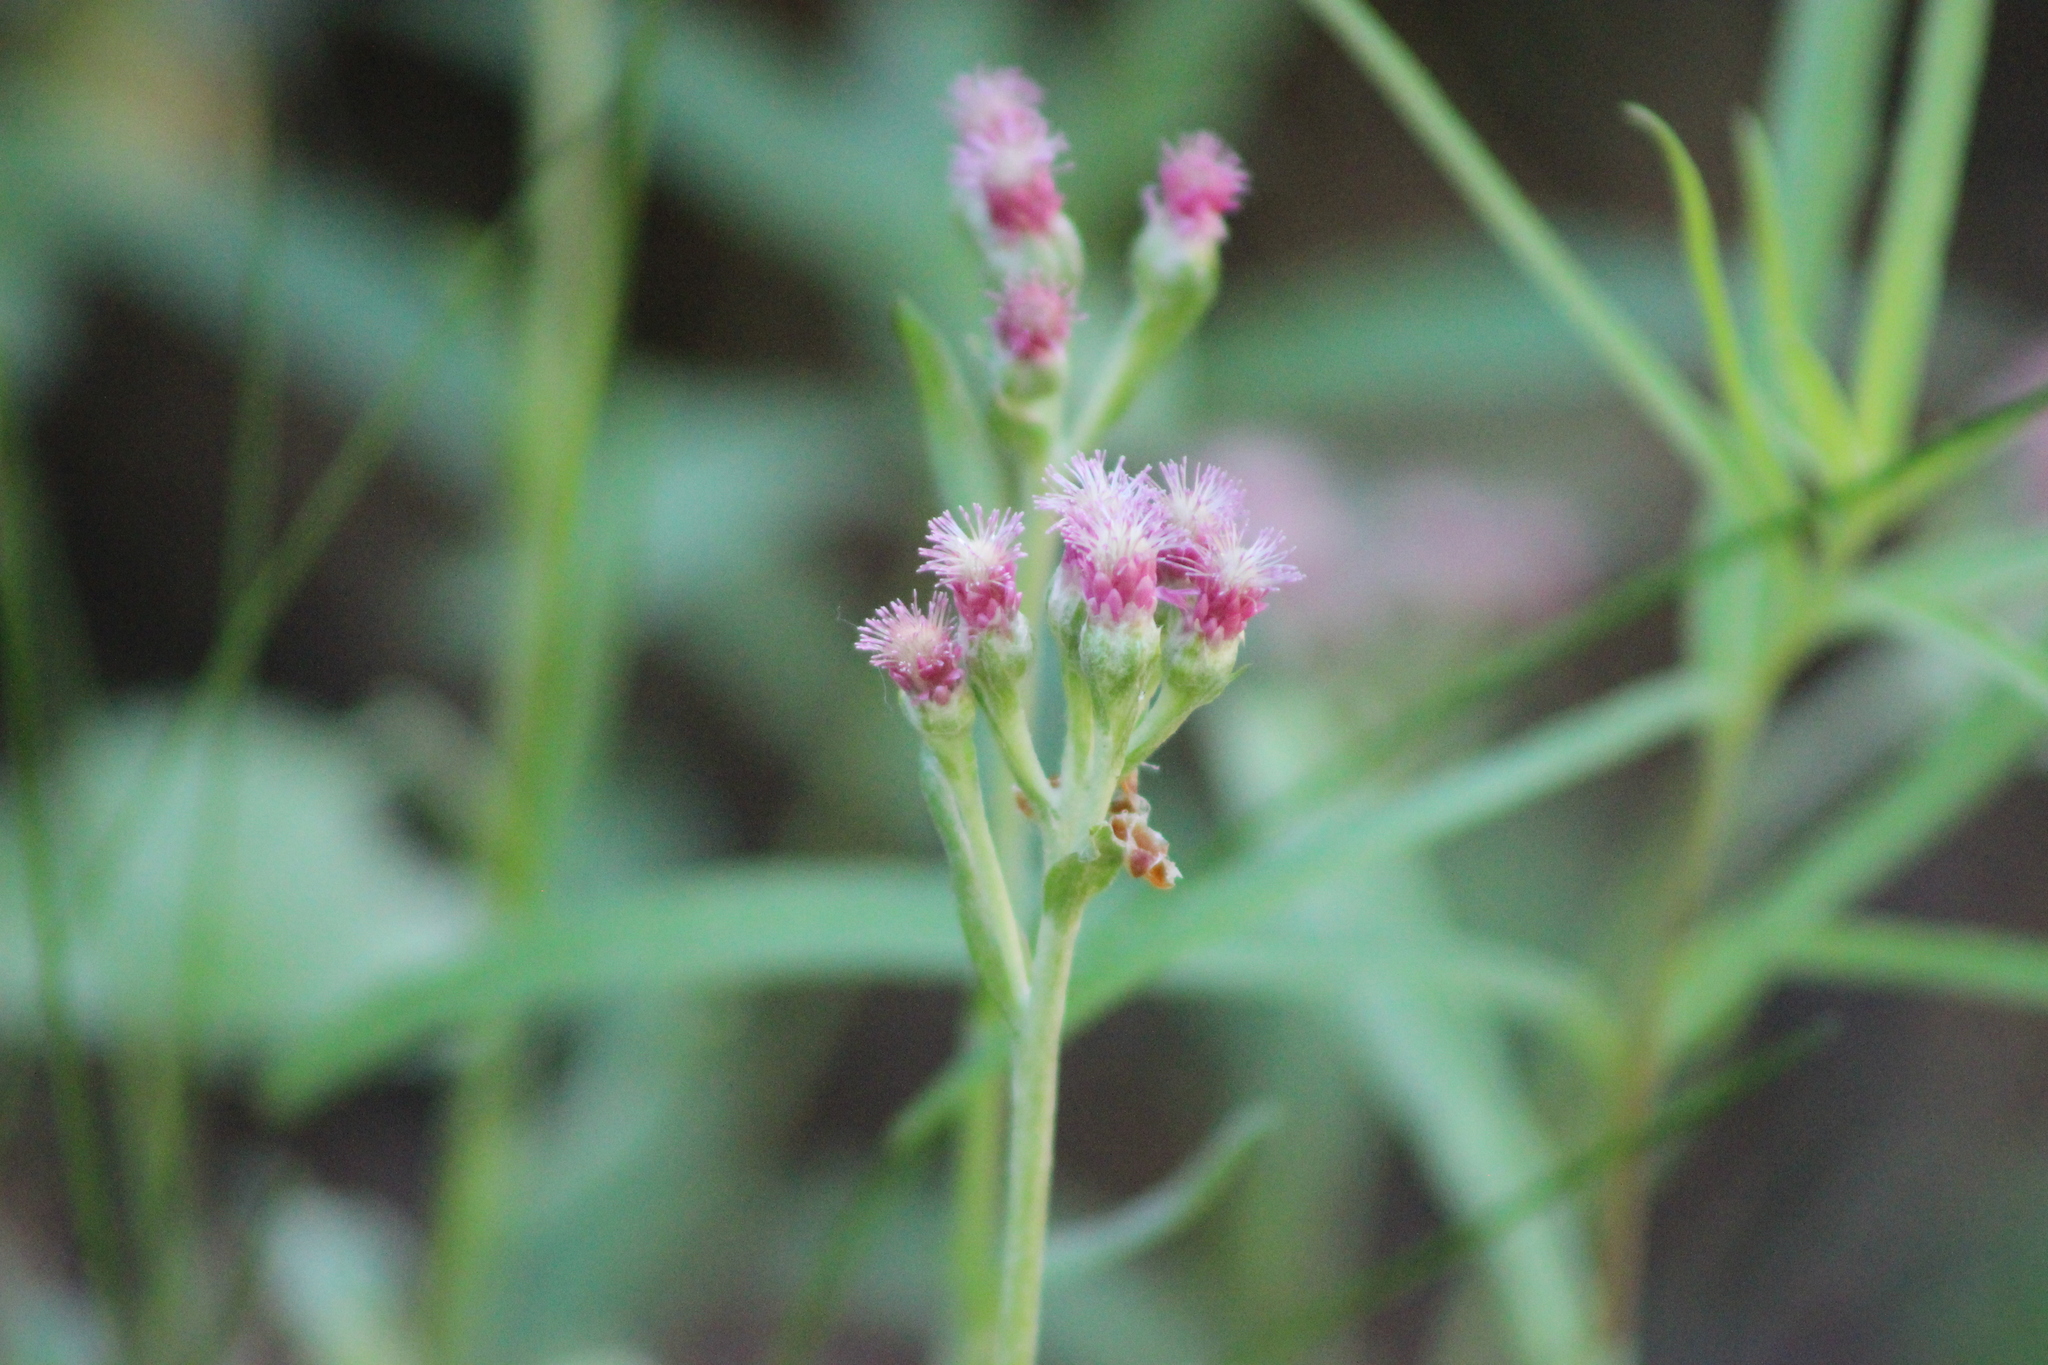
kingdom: Plantae
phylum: Tracheophyta
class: Magnoliopsida
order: Asterales
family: Asteraceae
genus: Antennaria
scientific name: Antennaria dioica
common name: Mountain everlasting
